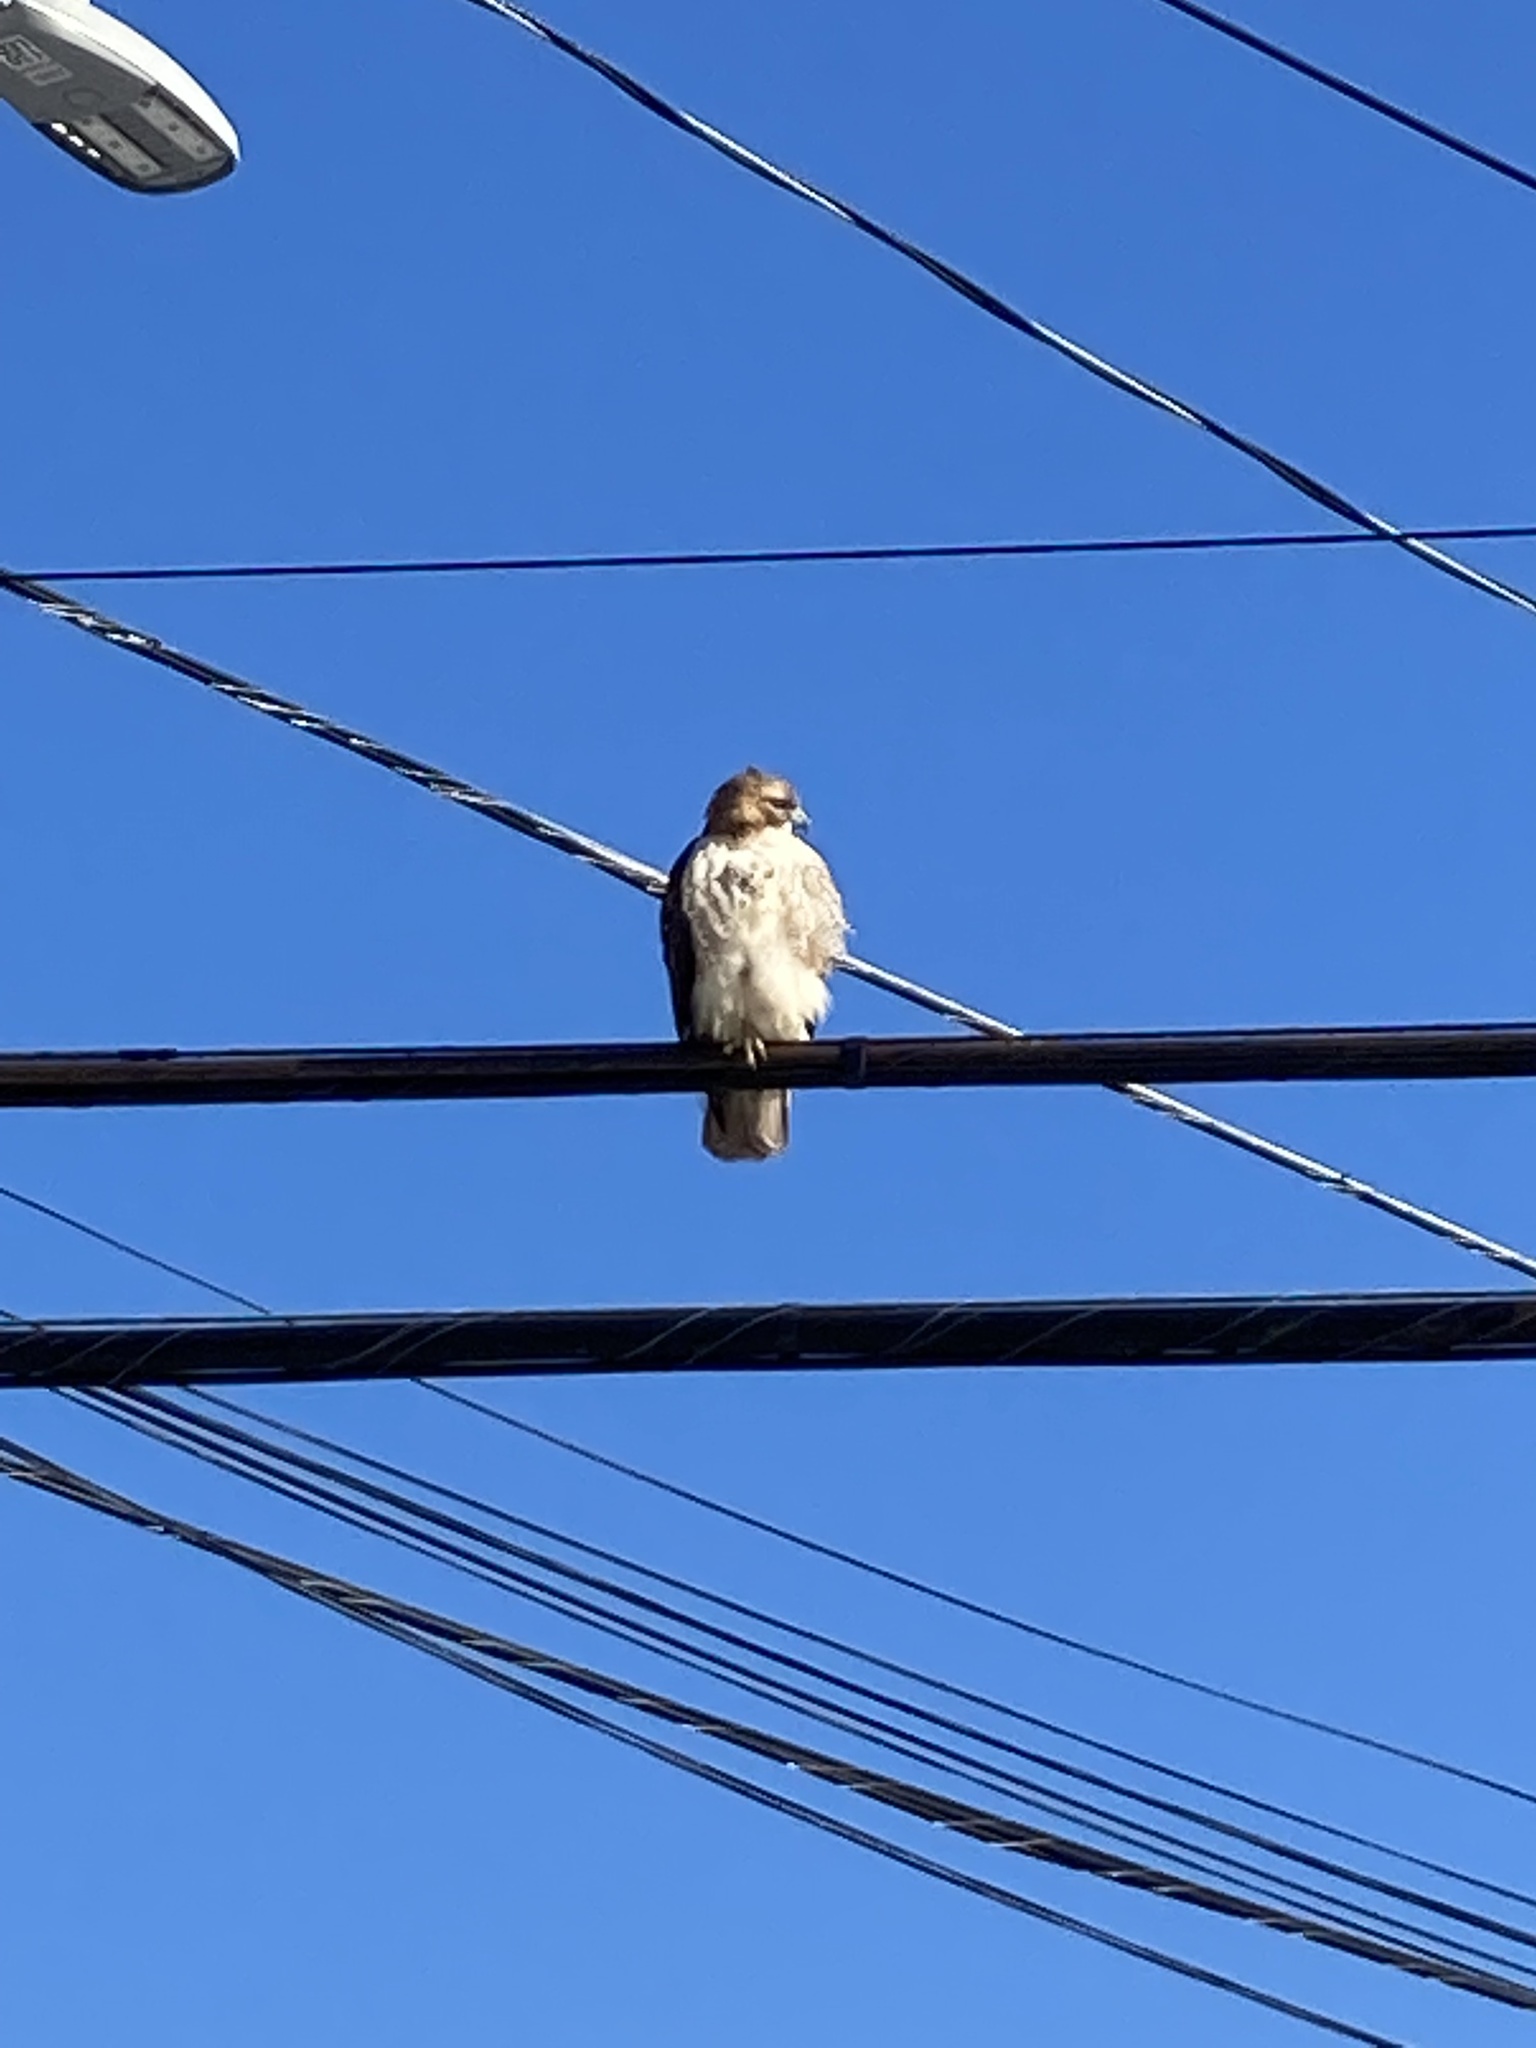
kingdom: Animalia
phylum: Chordata
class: Aves
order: Accipitriformes
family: Accipitridae
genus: Buteo
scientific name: Buteo jamaicensis
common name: Red-tailed hawk
